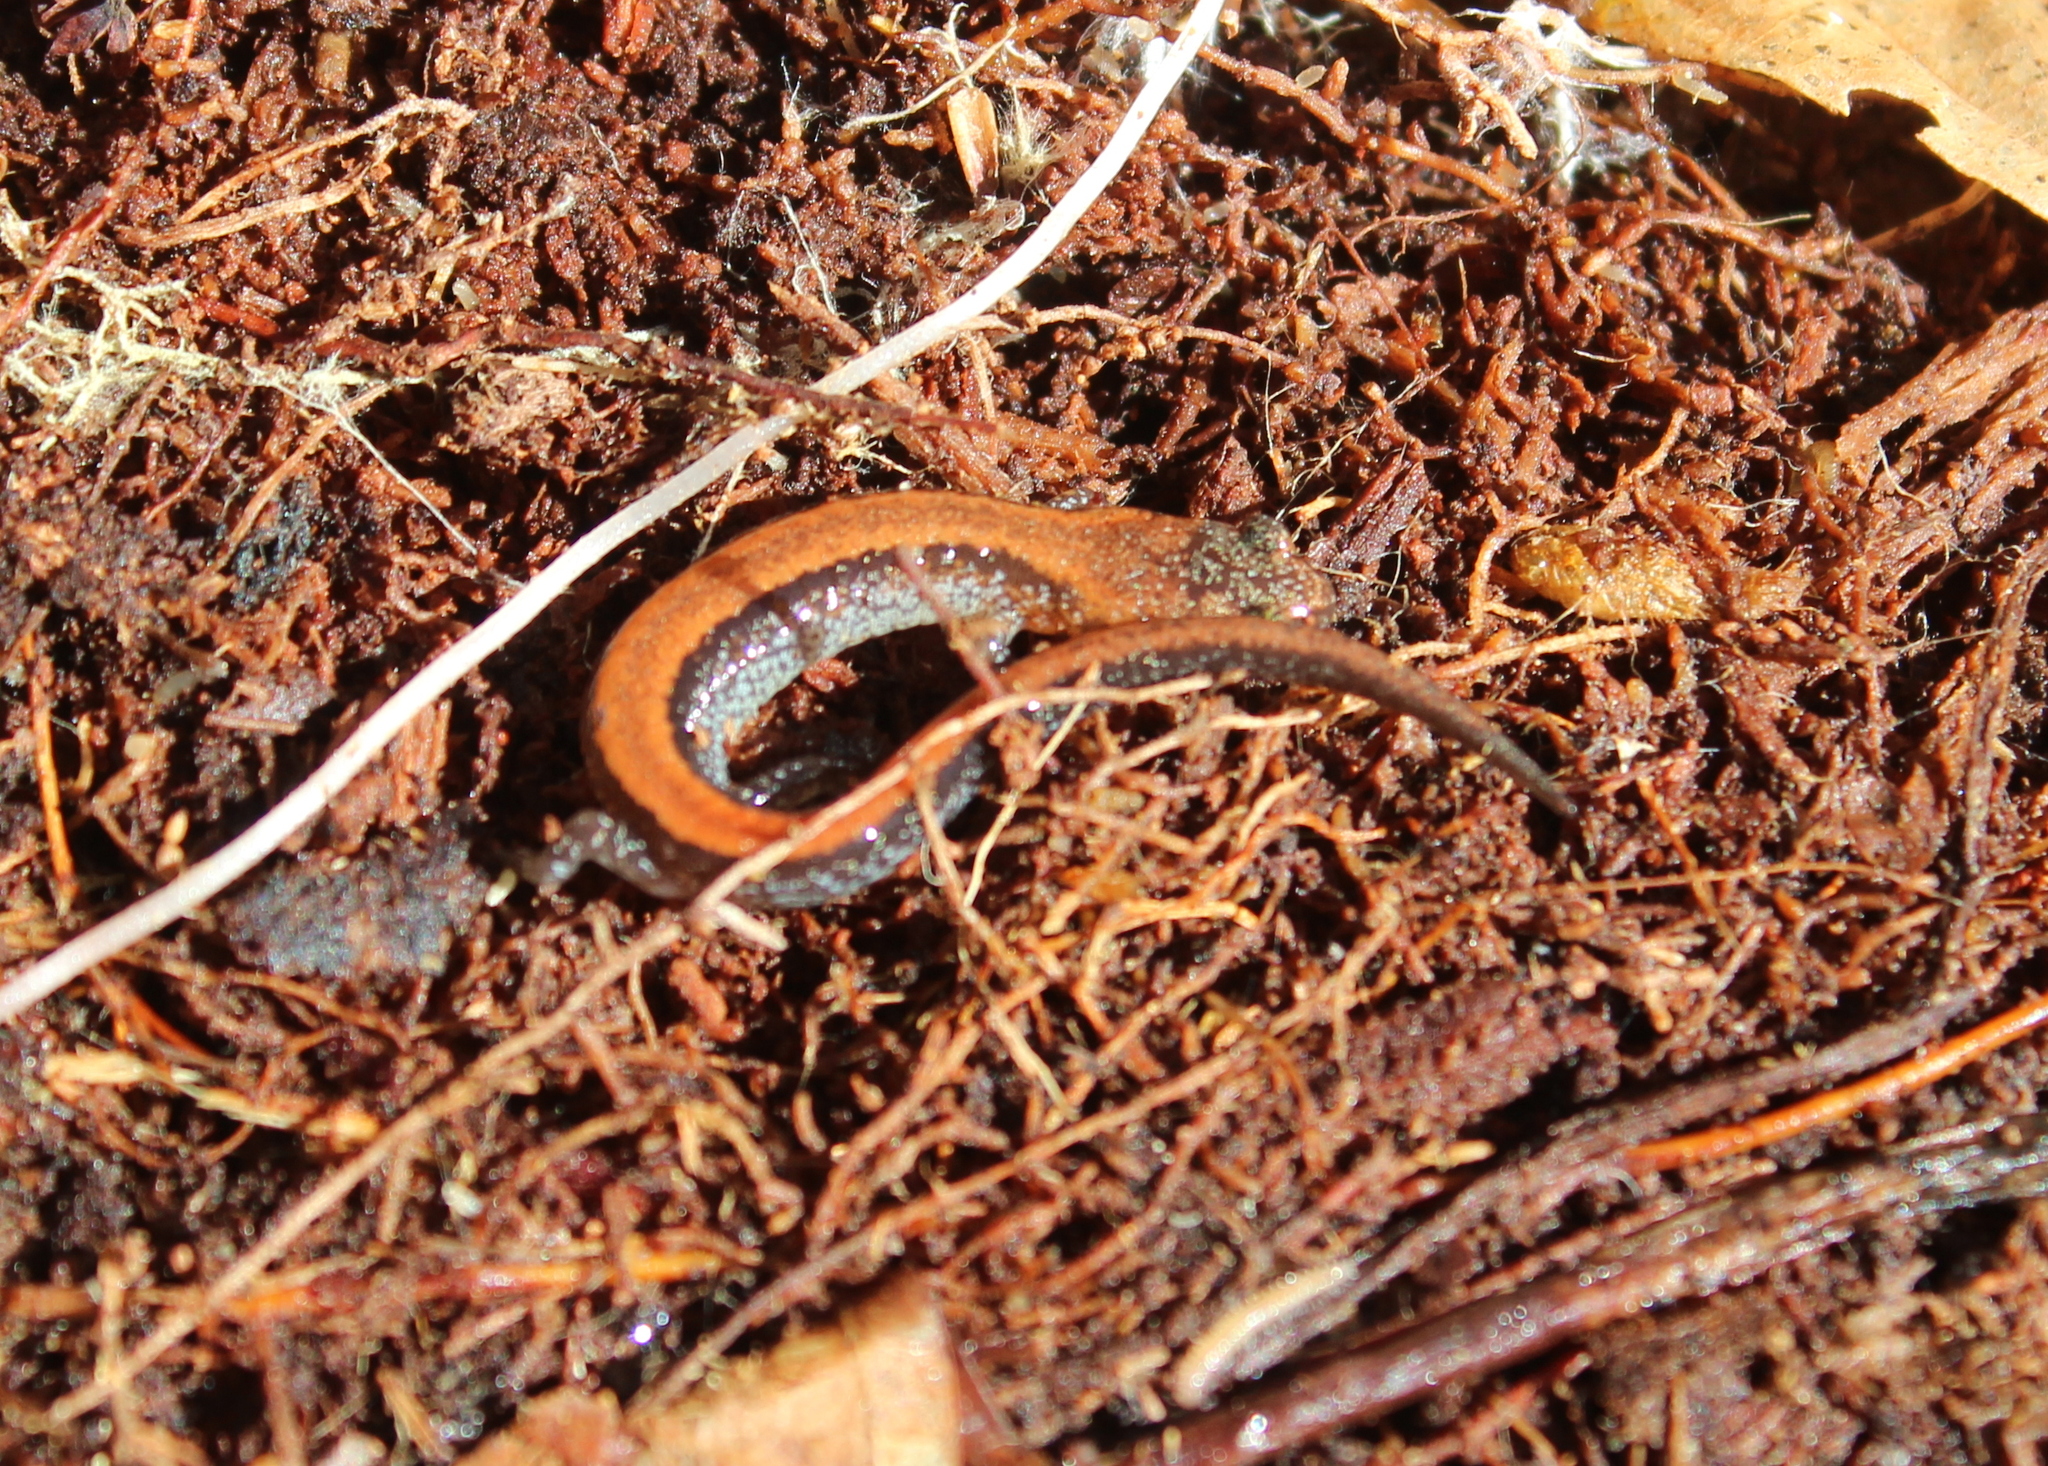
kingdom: Animalia
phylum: Chordata
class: Amphibia
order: Caudata
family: Plethodontidae
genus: Plethodon
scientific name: Plethodon cinereus
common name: Redback salamander
